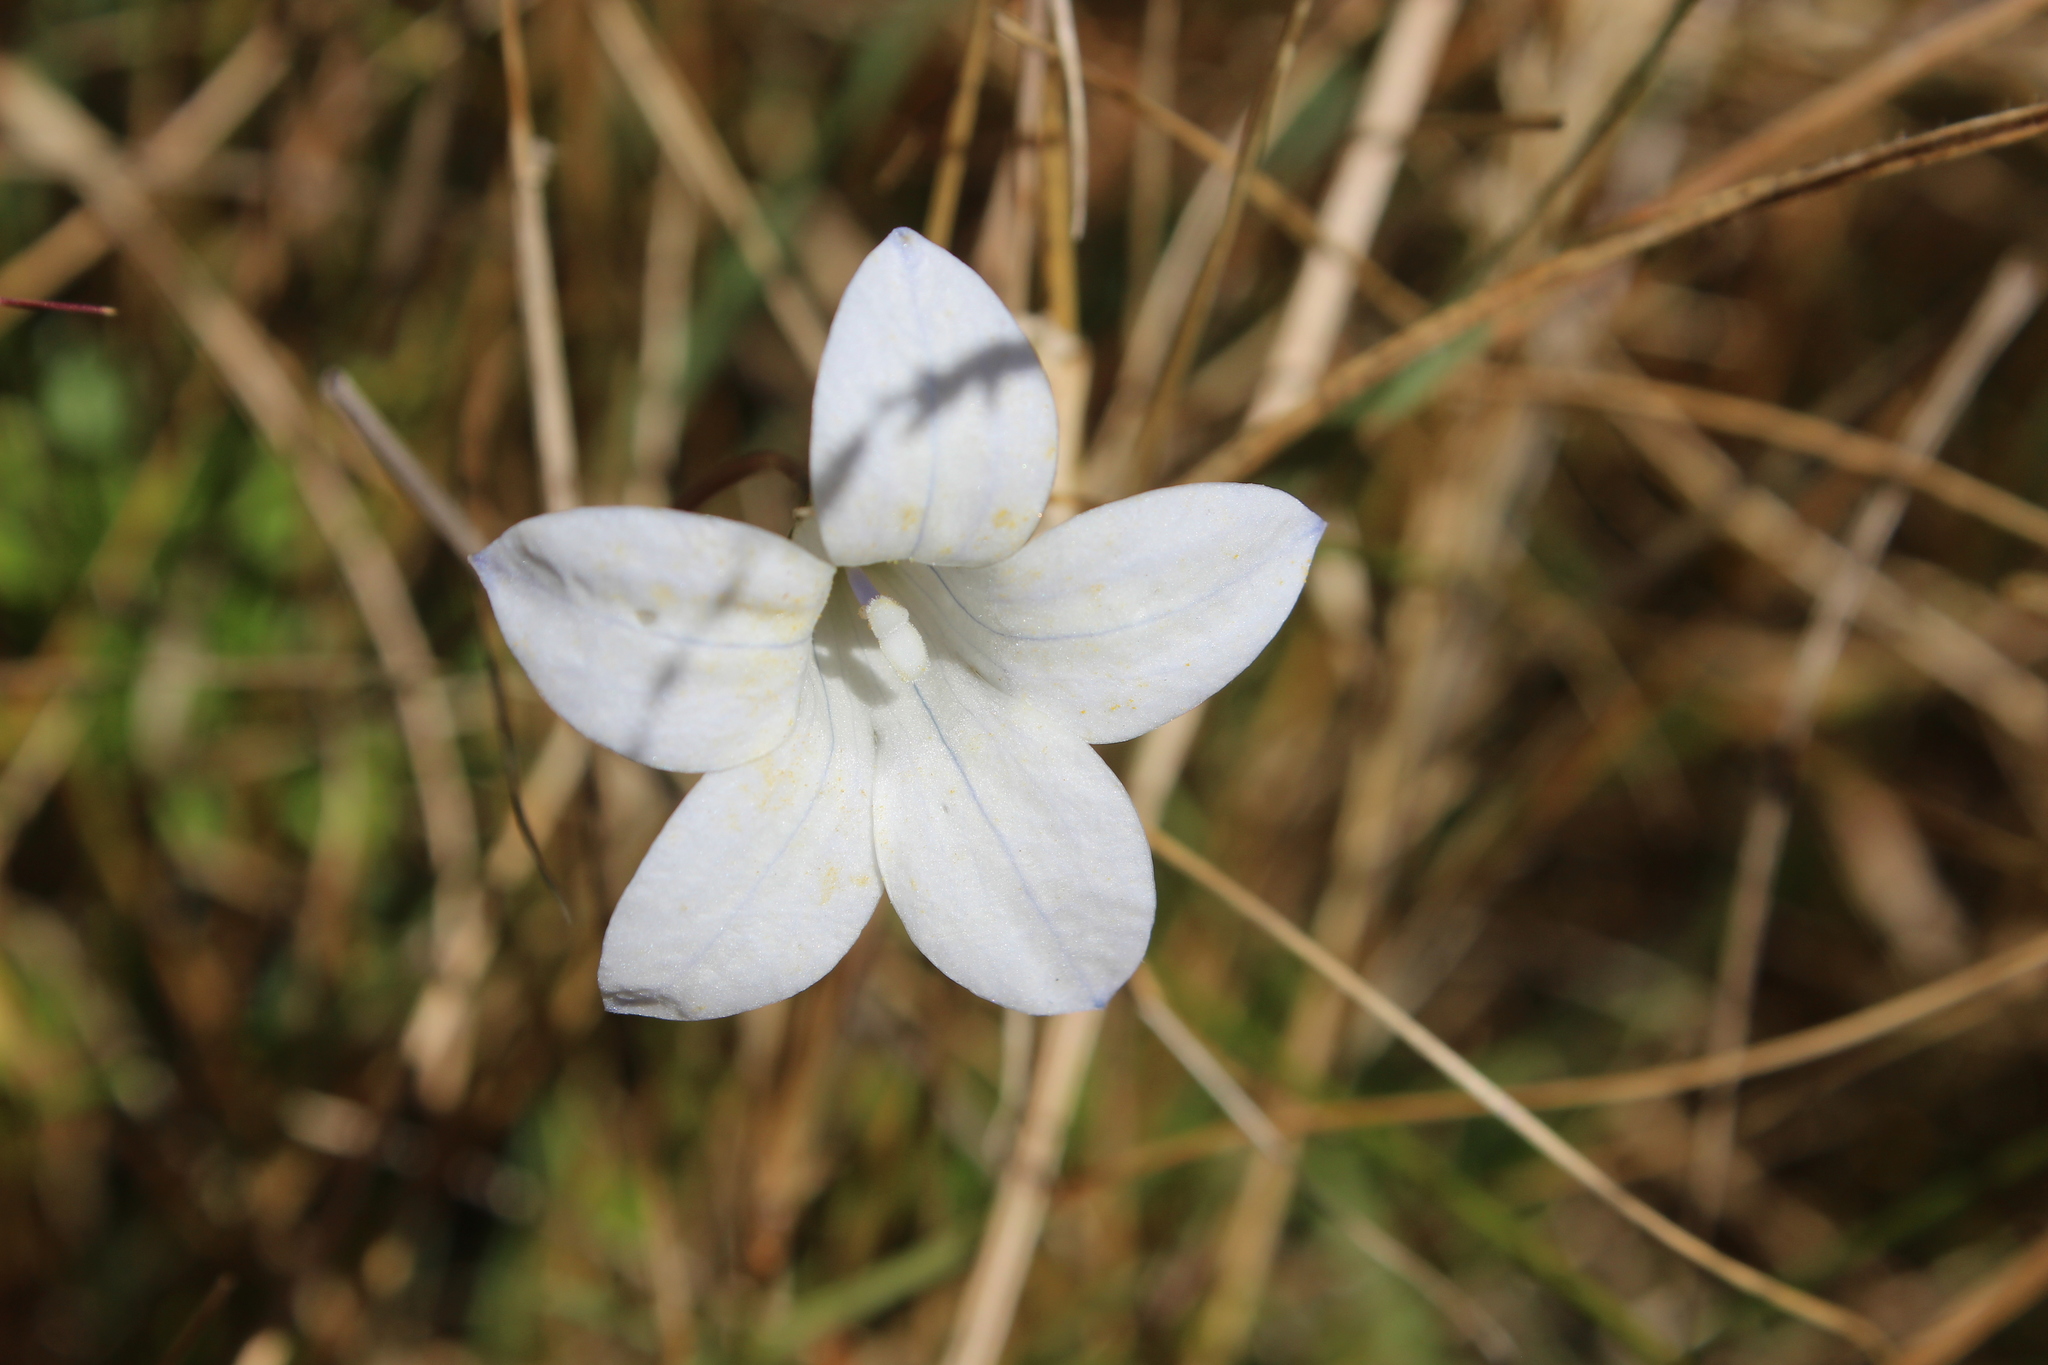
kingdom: Plantae
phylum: Tracheophyta
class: Magnoliopsida
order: Asterales
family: Campanulaceae
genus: Wahlenbergia
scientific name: Wahlenbergia albomarginata
